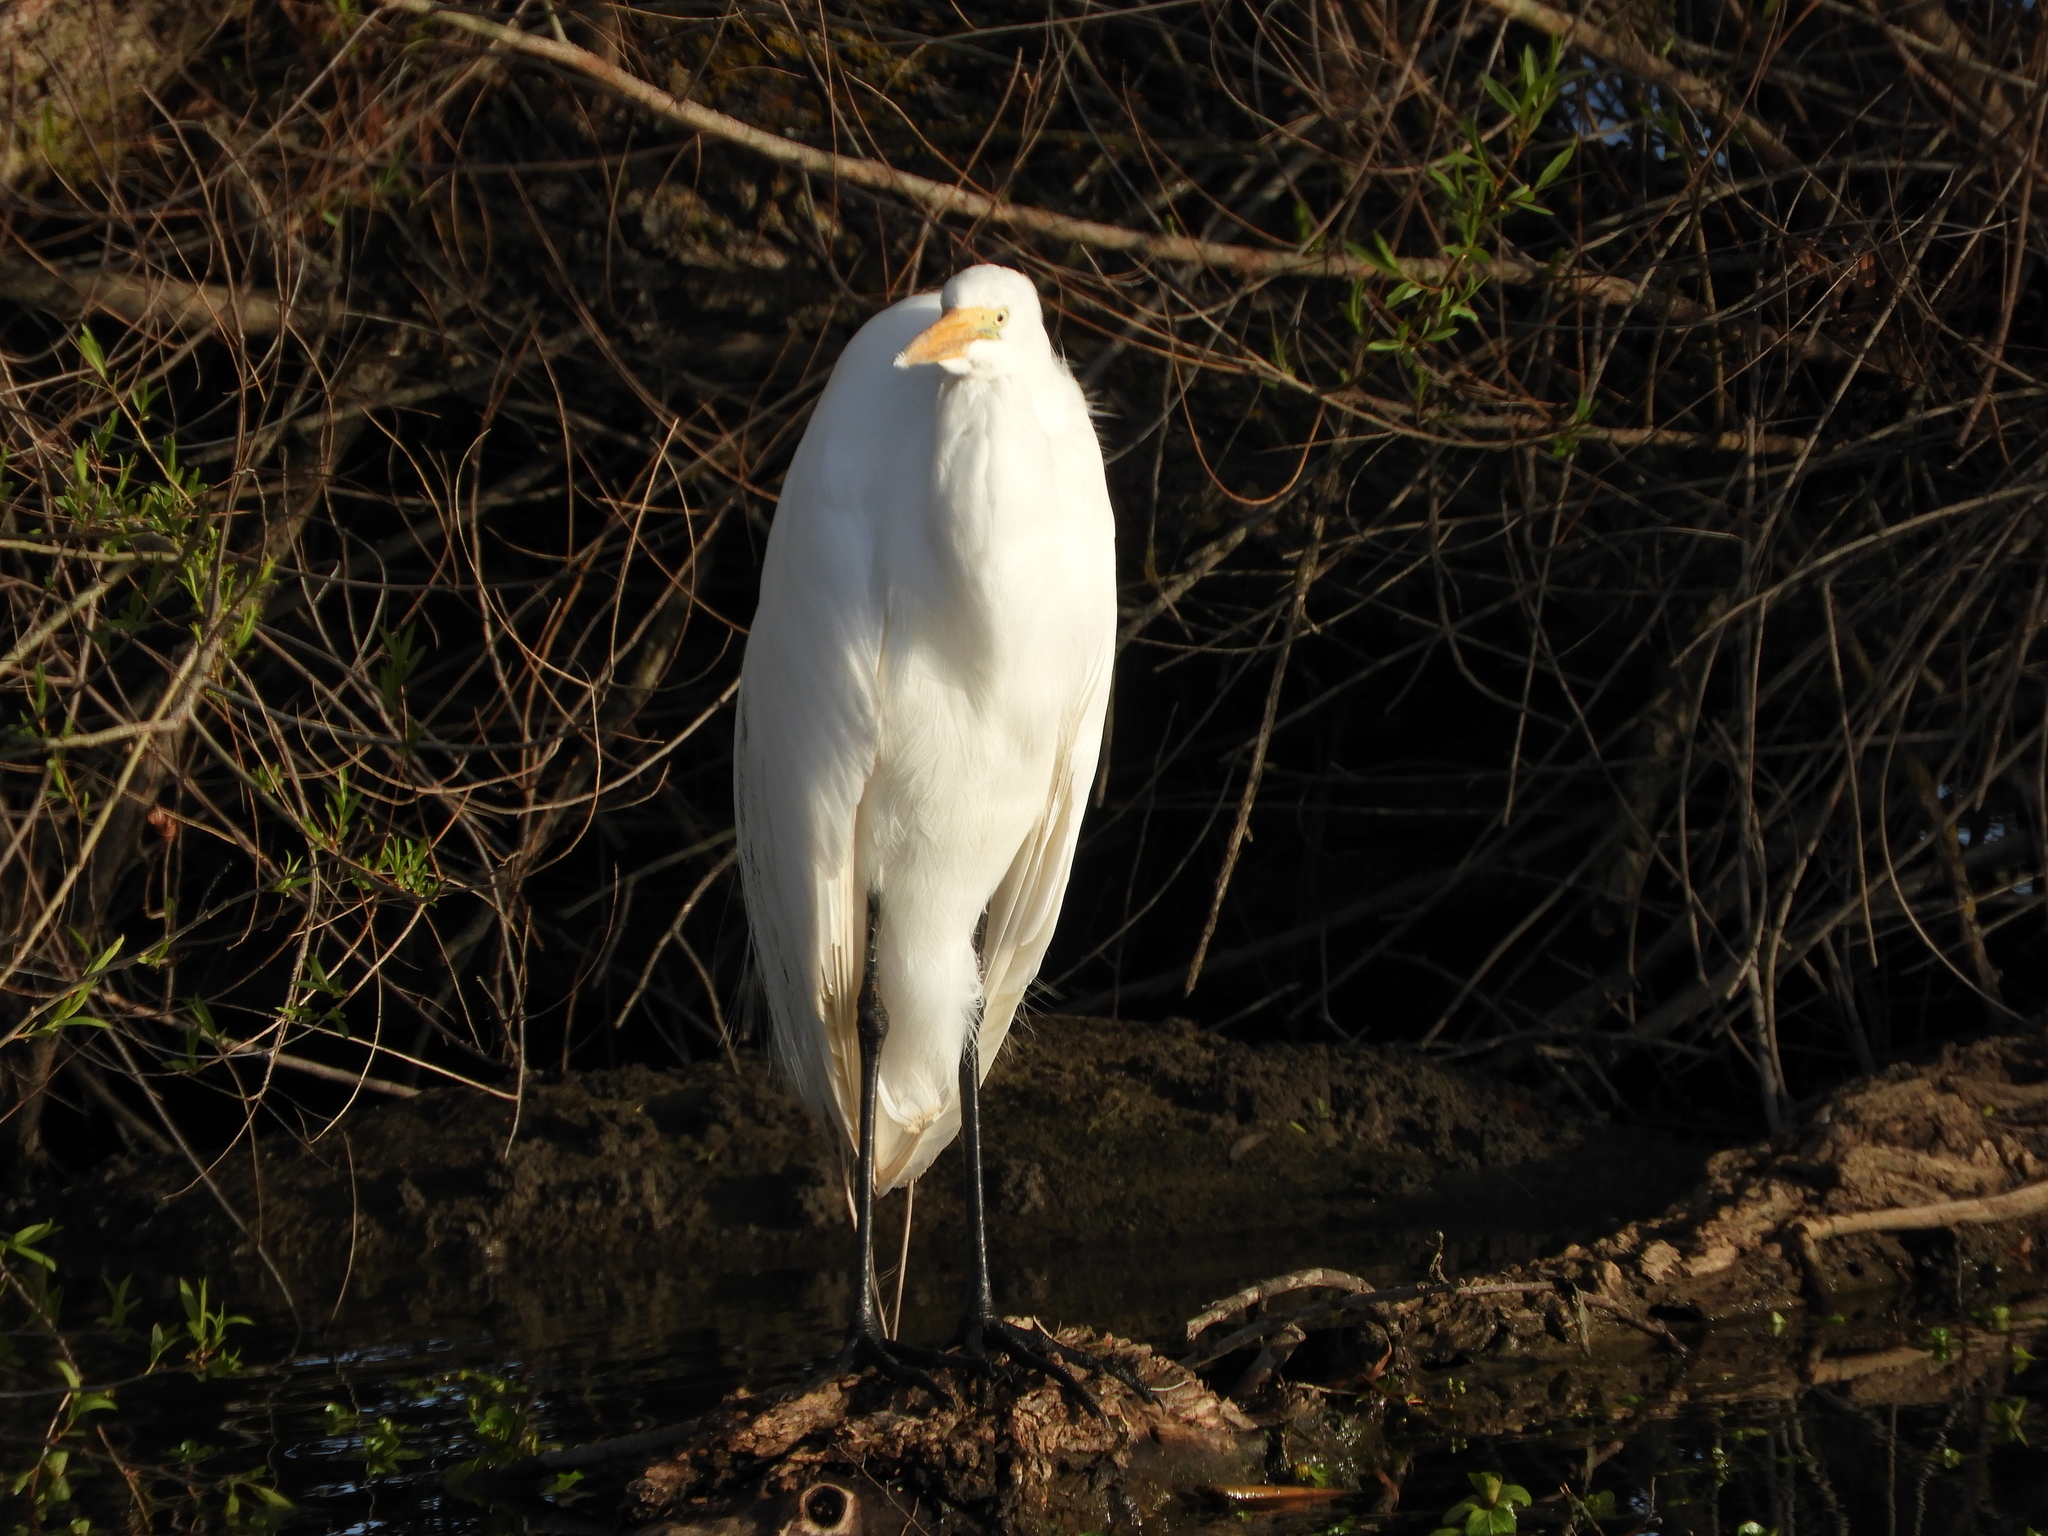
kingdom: Animalia
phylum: Chordata
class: Aves
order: Pelecaniformes
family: Ardeidae
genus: Ardea
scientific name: Ardea alba
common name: Great egret
